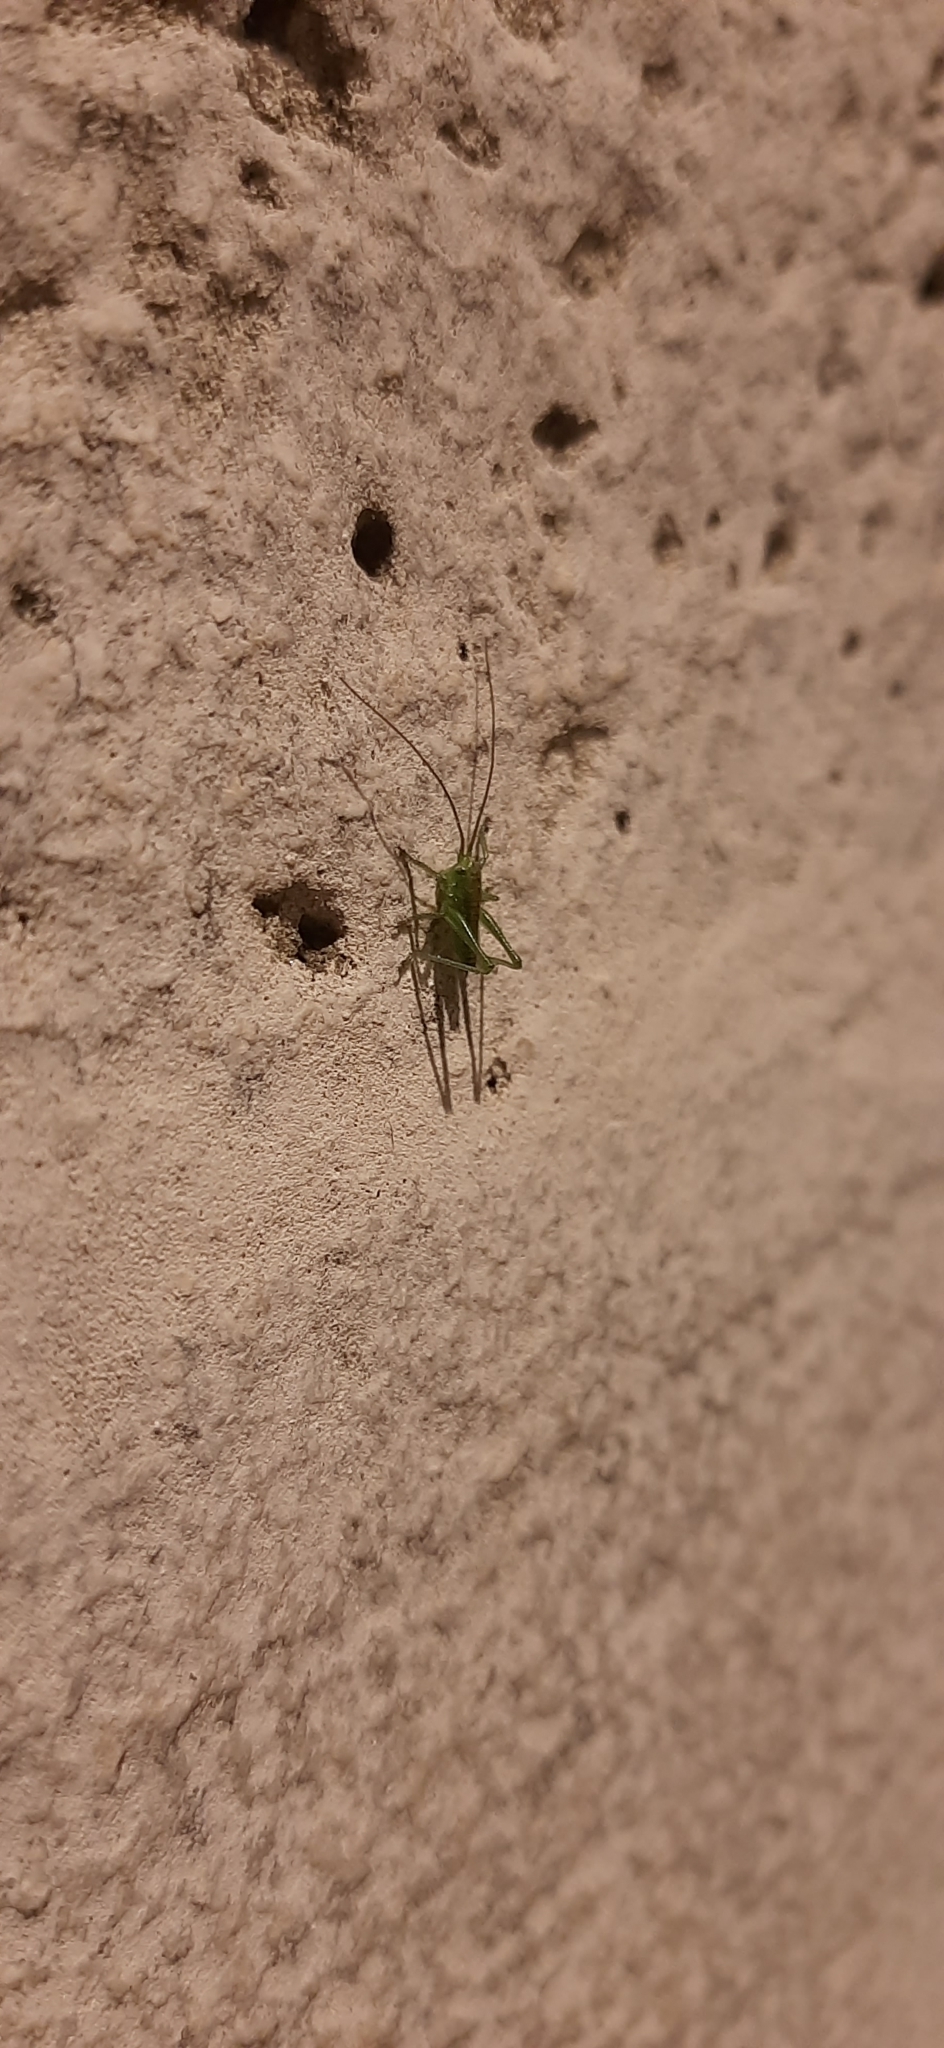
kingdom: Animalia
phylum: Arthropoda
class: Insecta
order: Orthoptera
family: Tettigoniidae
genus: Tettigonia
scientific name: Tettigonia
